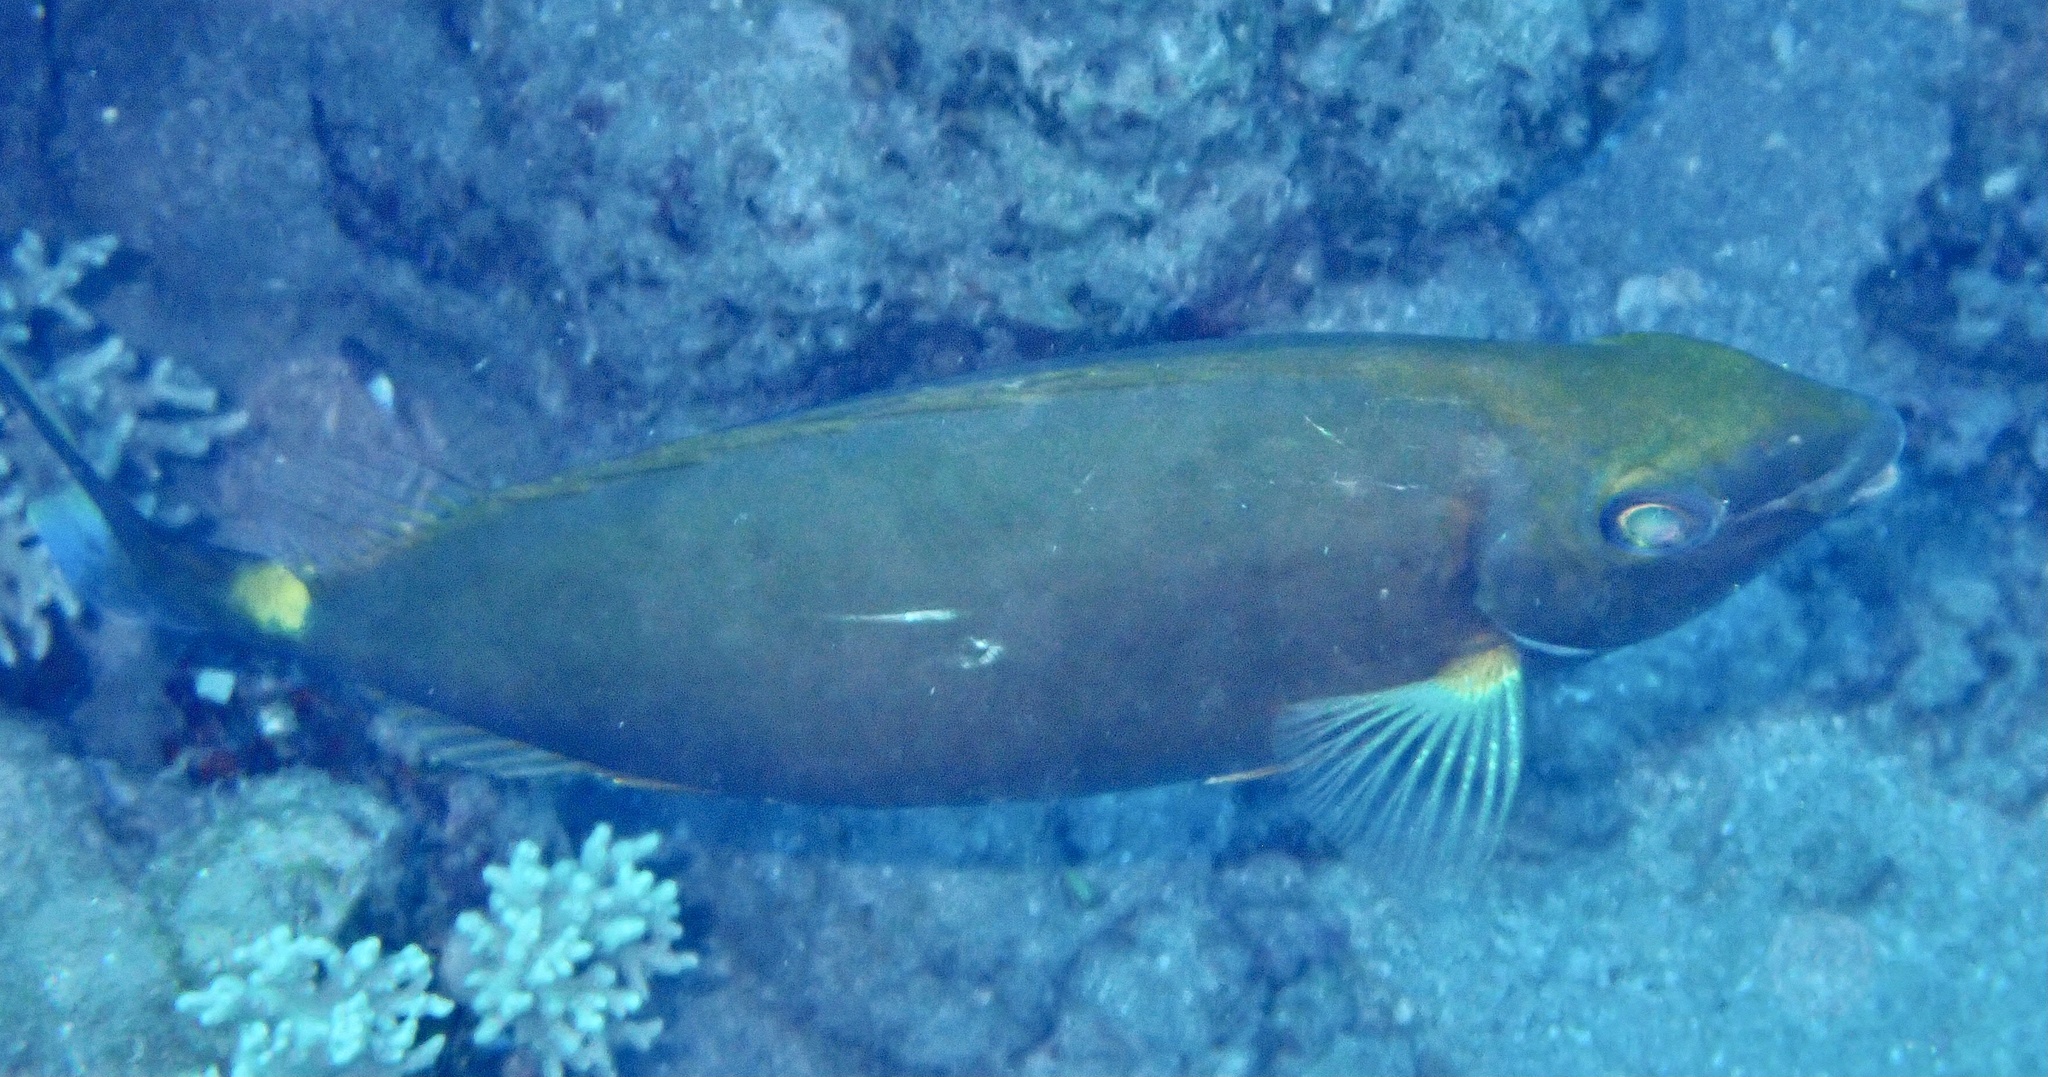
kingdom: Animalia
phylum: Chordata
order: Perciformes
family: Siganidae
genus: Siganus
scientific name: Siganus argenteus
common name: Forktail rabbitfish
